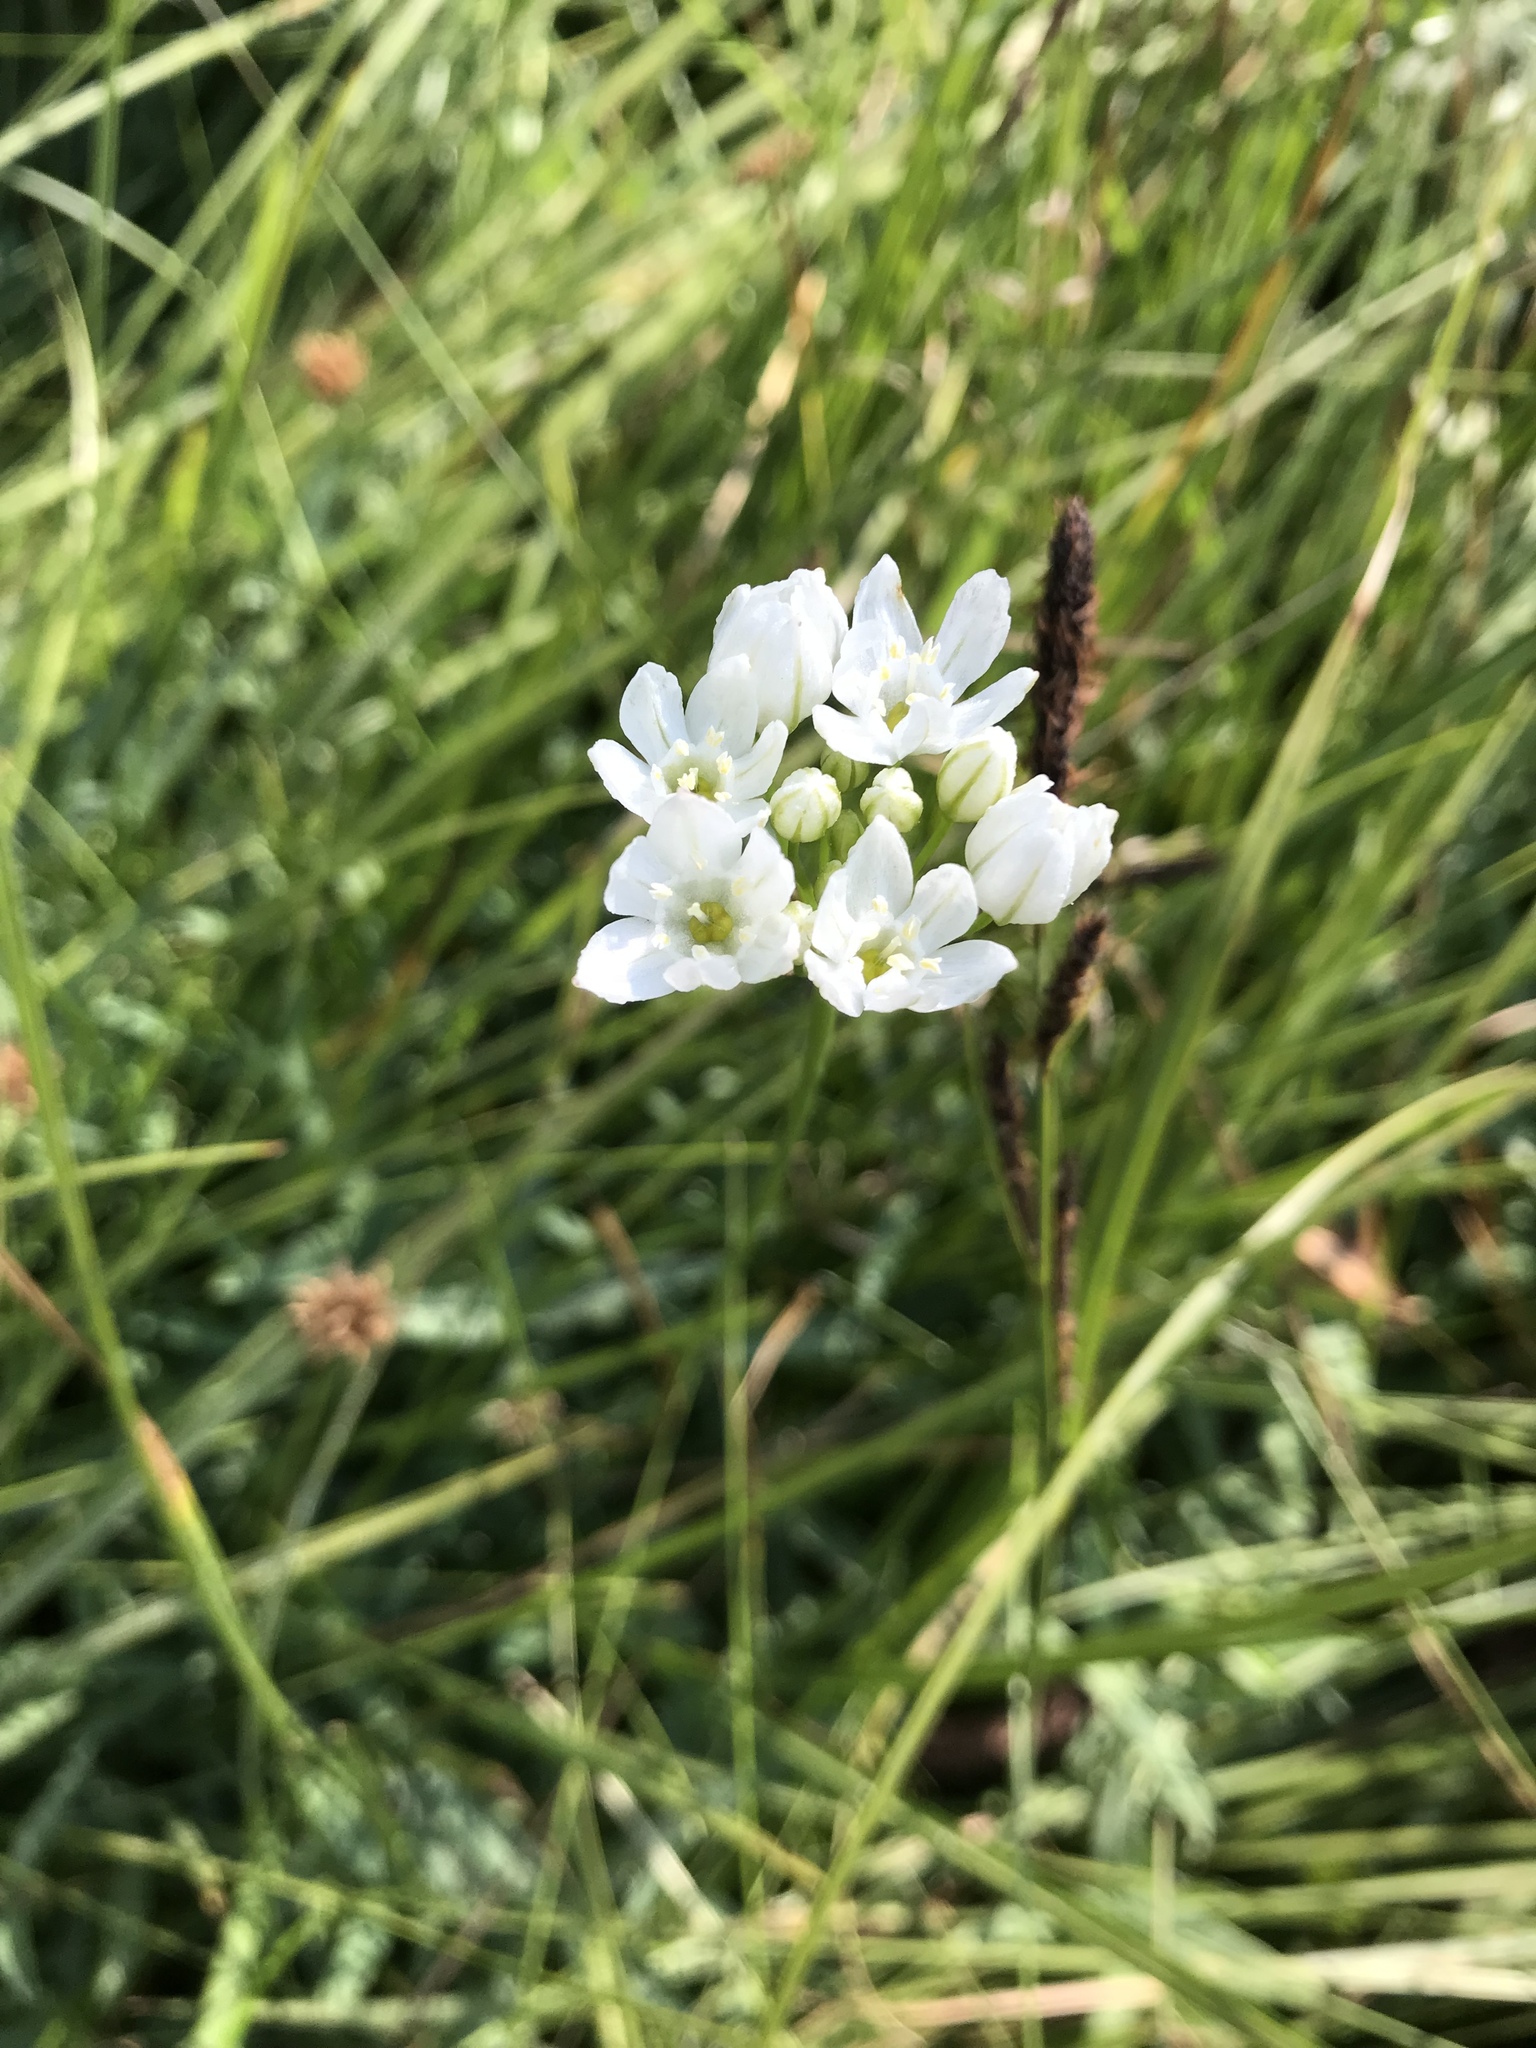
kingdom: Plantae
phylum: Tracheophyta
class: Liliopsida
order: Asparagales
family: Asparagaceae
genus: Triteleia
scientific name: Triteleia hyacinthina
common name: White brodiaea
